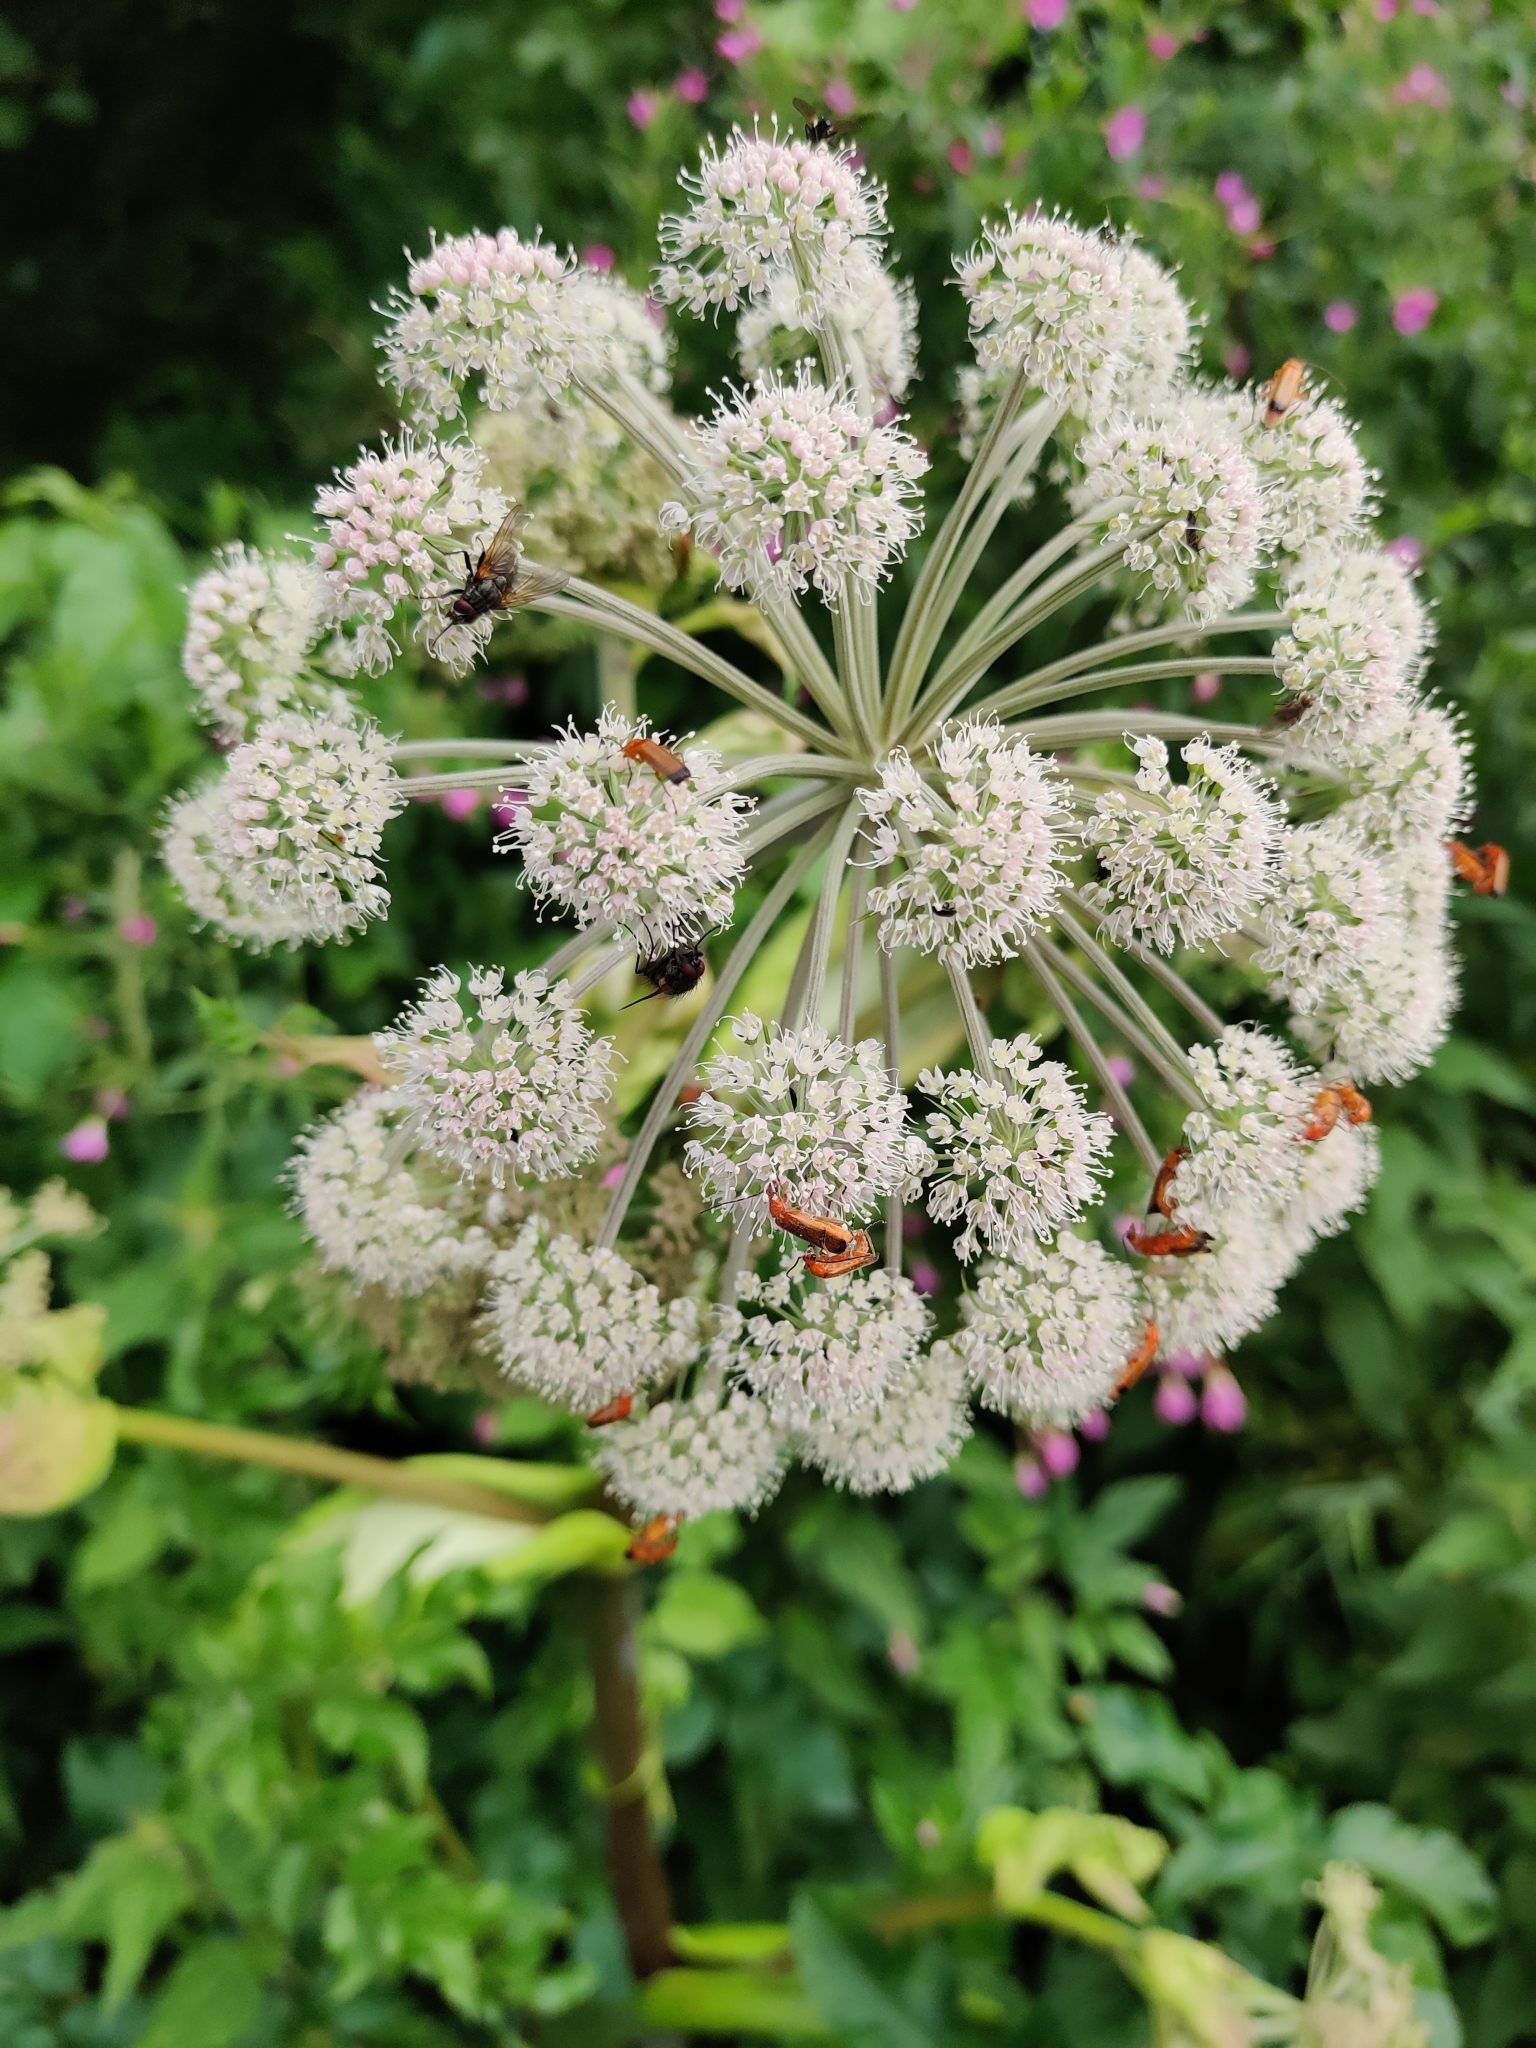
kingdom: Plantae
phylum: Tracheophyta
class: Magnoliopsida
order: Apiales
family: Apiaceae
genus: Angelica
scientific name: Angelica sylvestris
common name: Wild angelica
